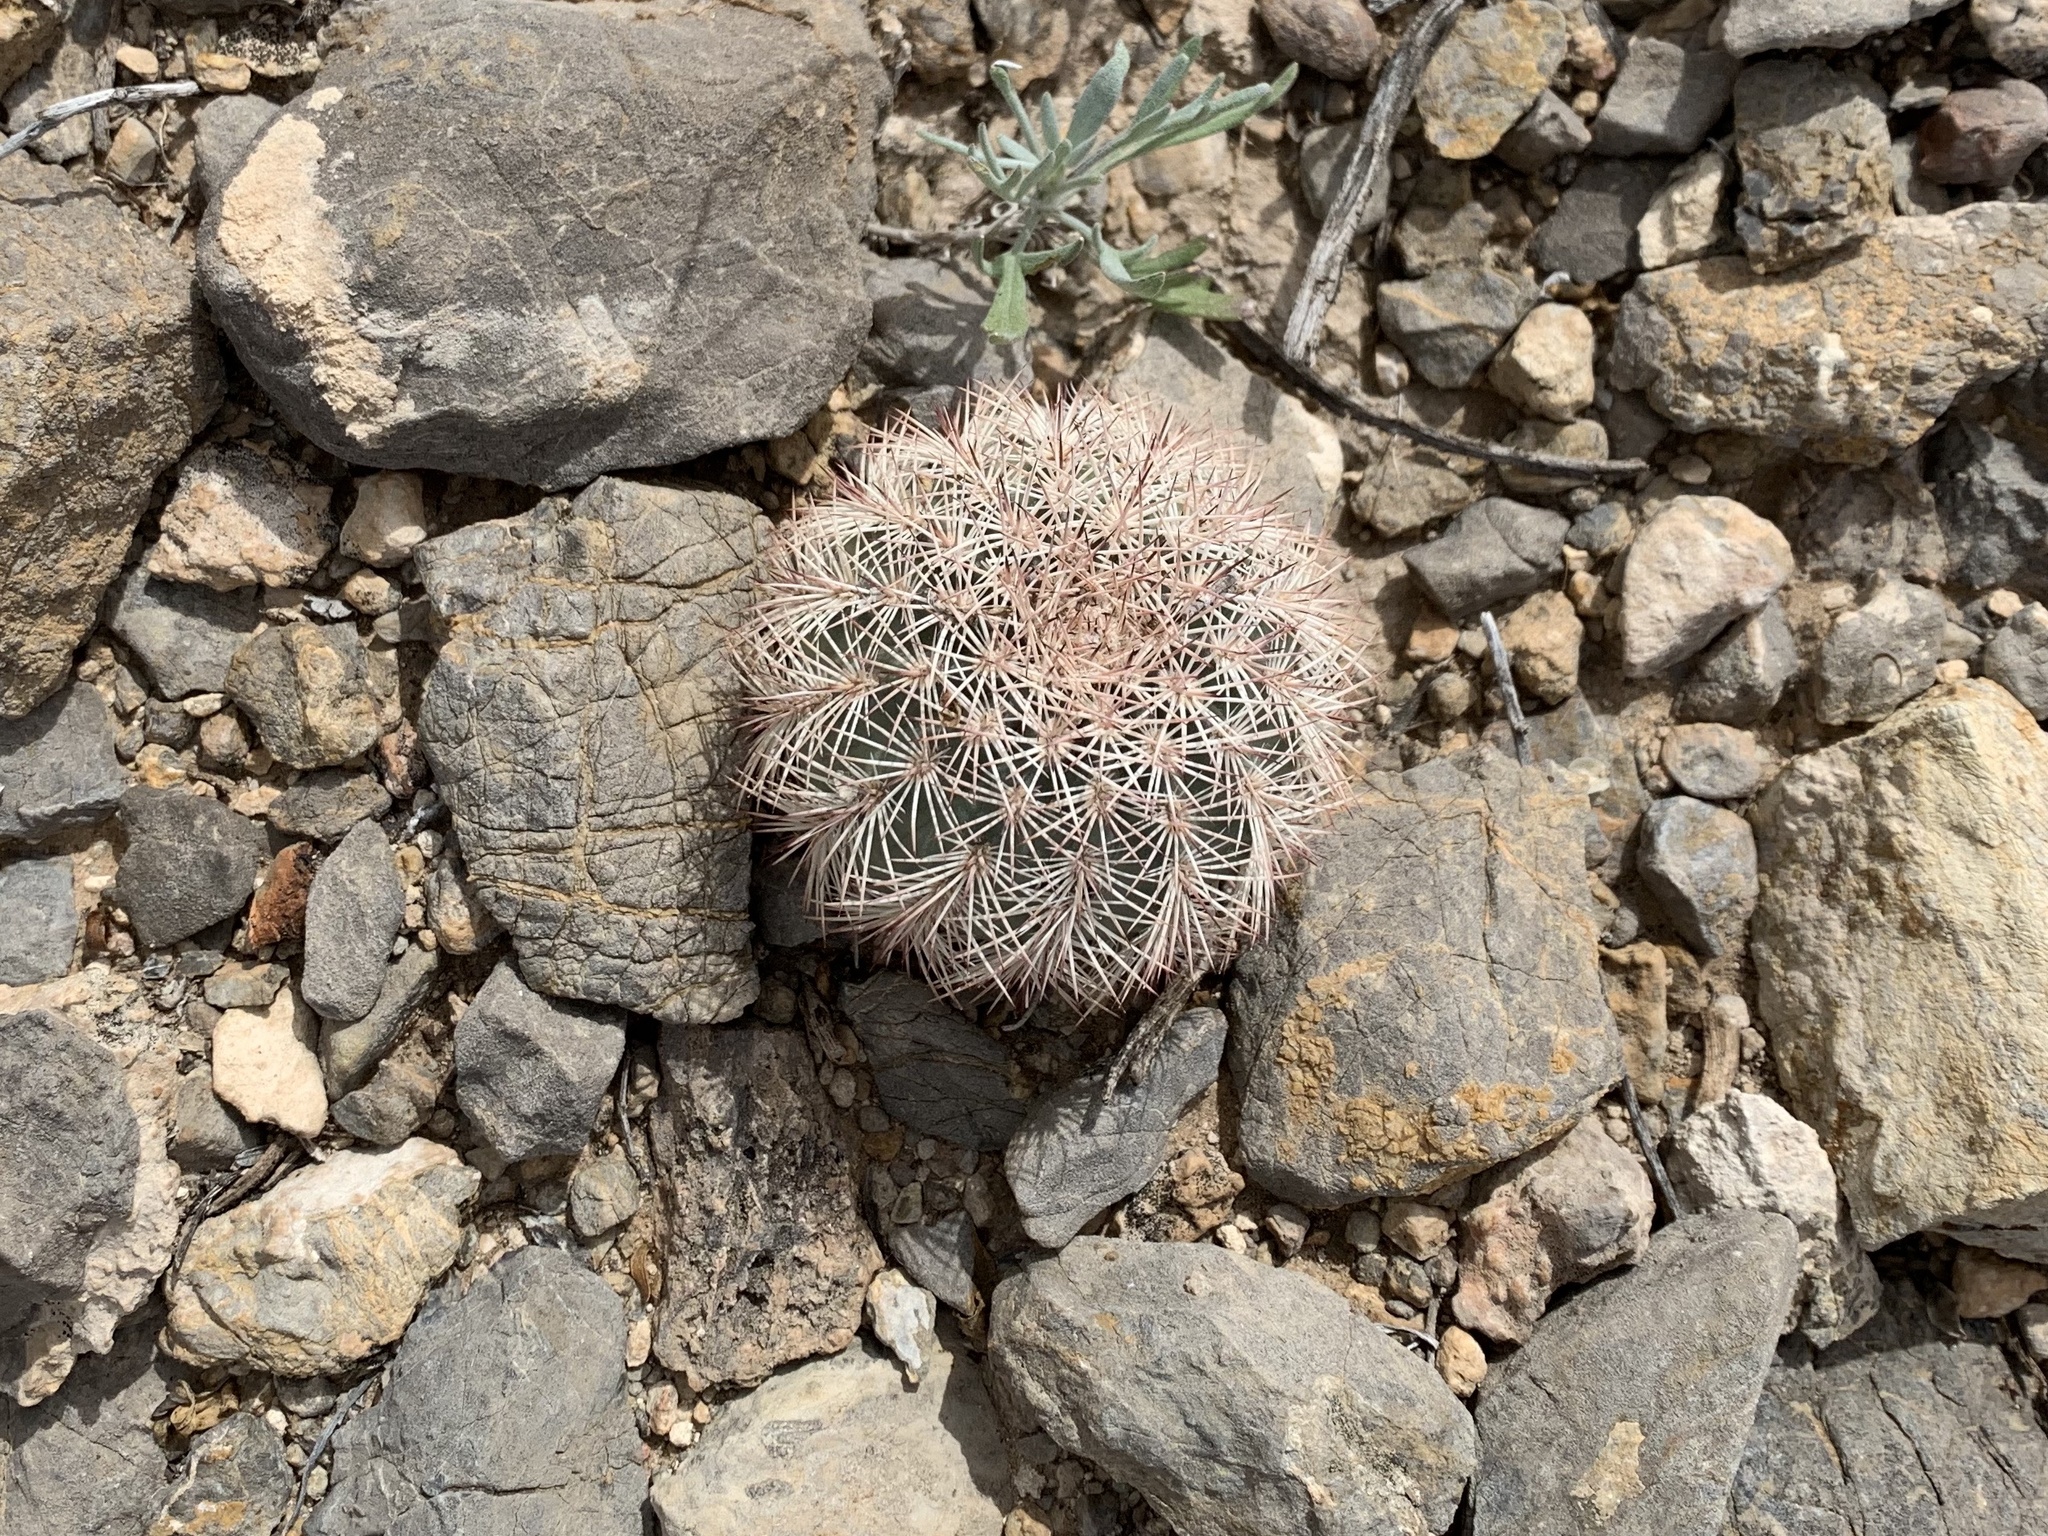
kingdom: Plantae
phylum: Tracheophyta
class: Magnoliopsida
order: Caryophyllales
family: Cactaceae
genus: Echinocereus
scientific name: Echinocereus dasyacanthus
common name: Spiny hedgehog cactus
